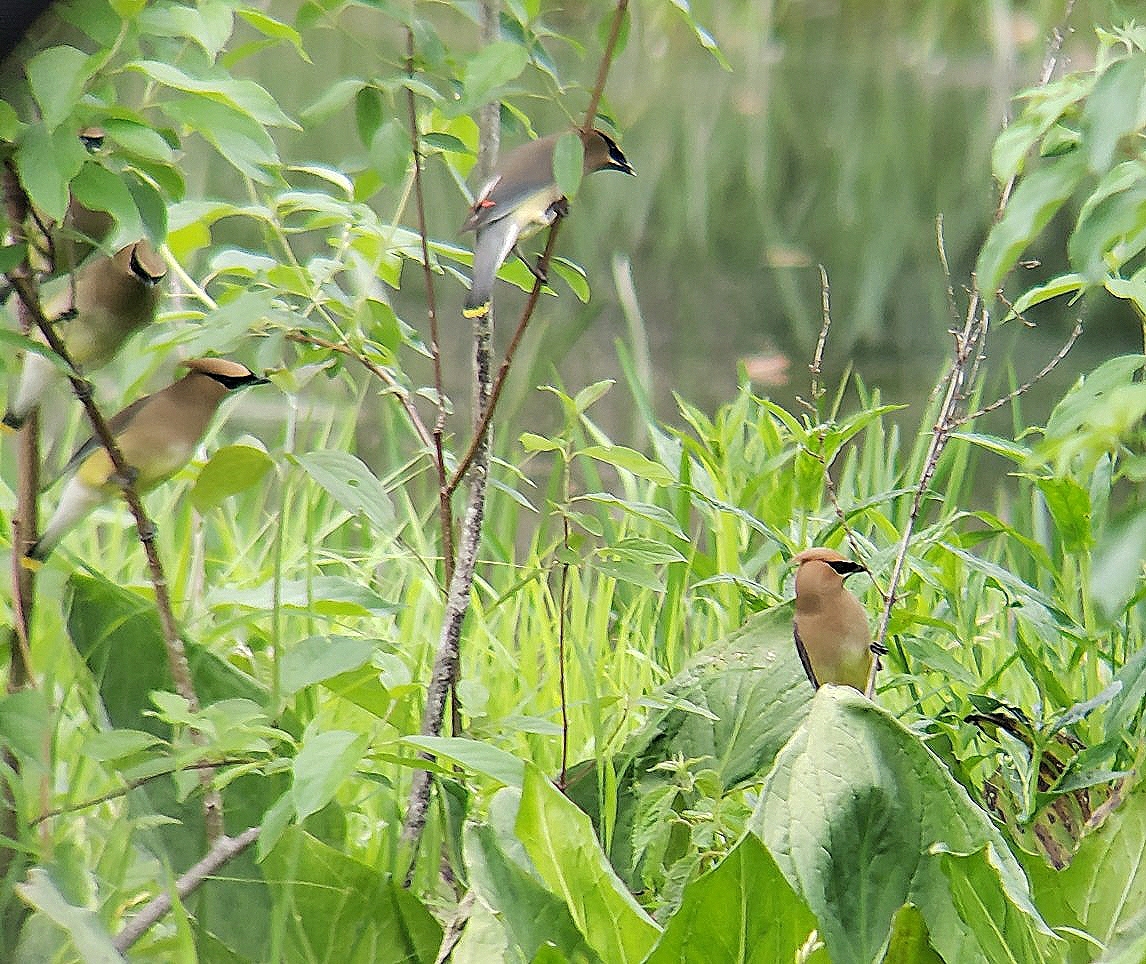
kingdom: Animalia
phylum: Chordata
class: Aves
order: Passeriformes
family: Bombycillidae
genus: Bombycilla
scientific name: Bombycilla cedrorum
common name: Cedar waxwing
